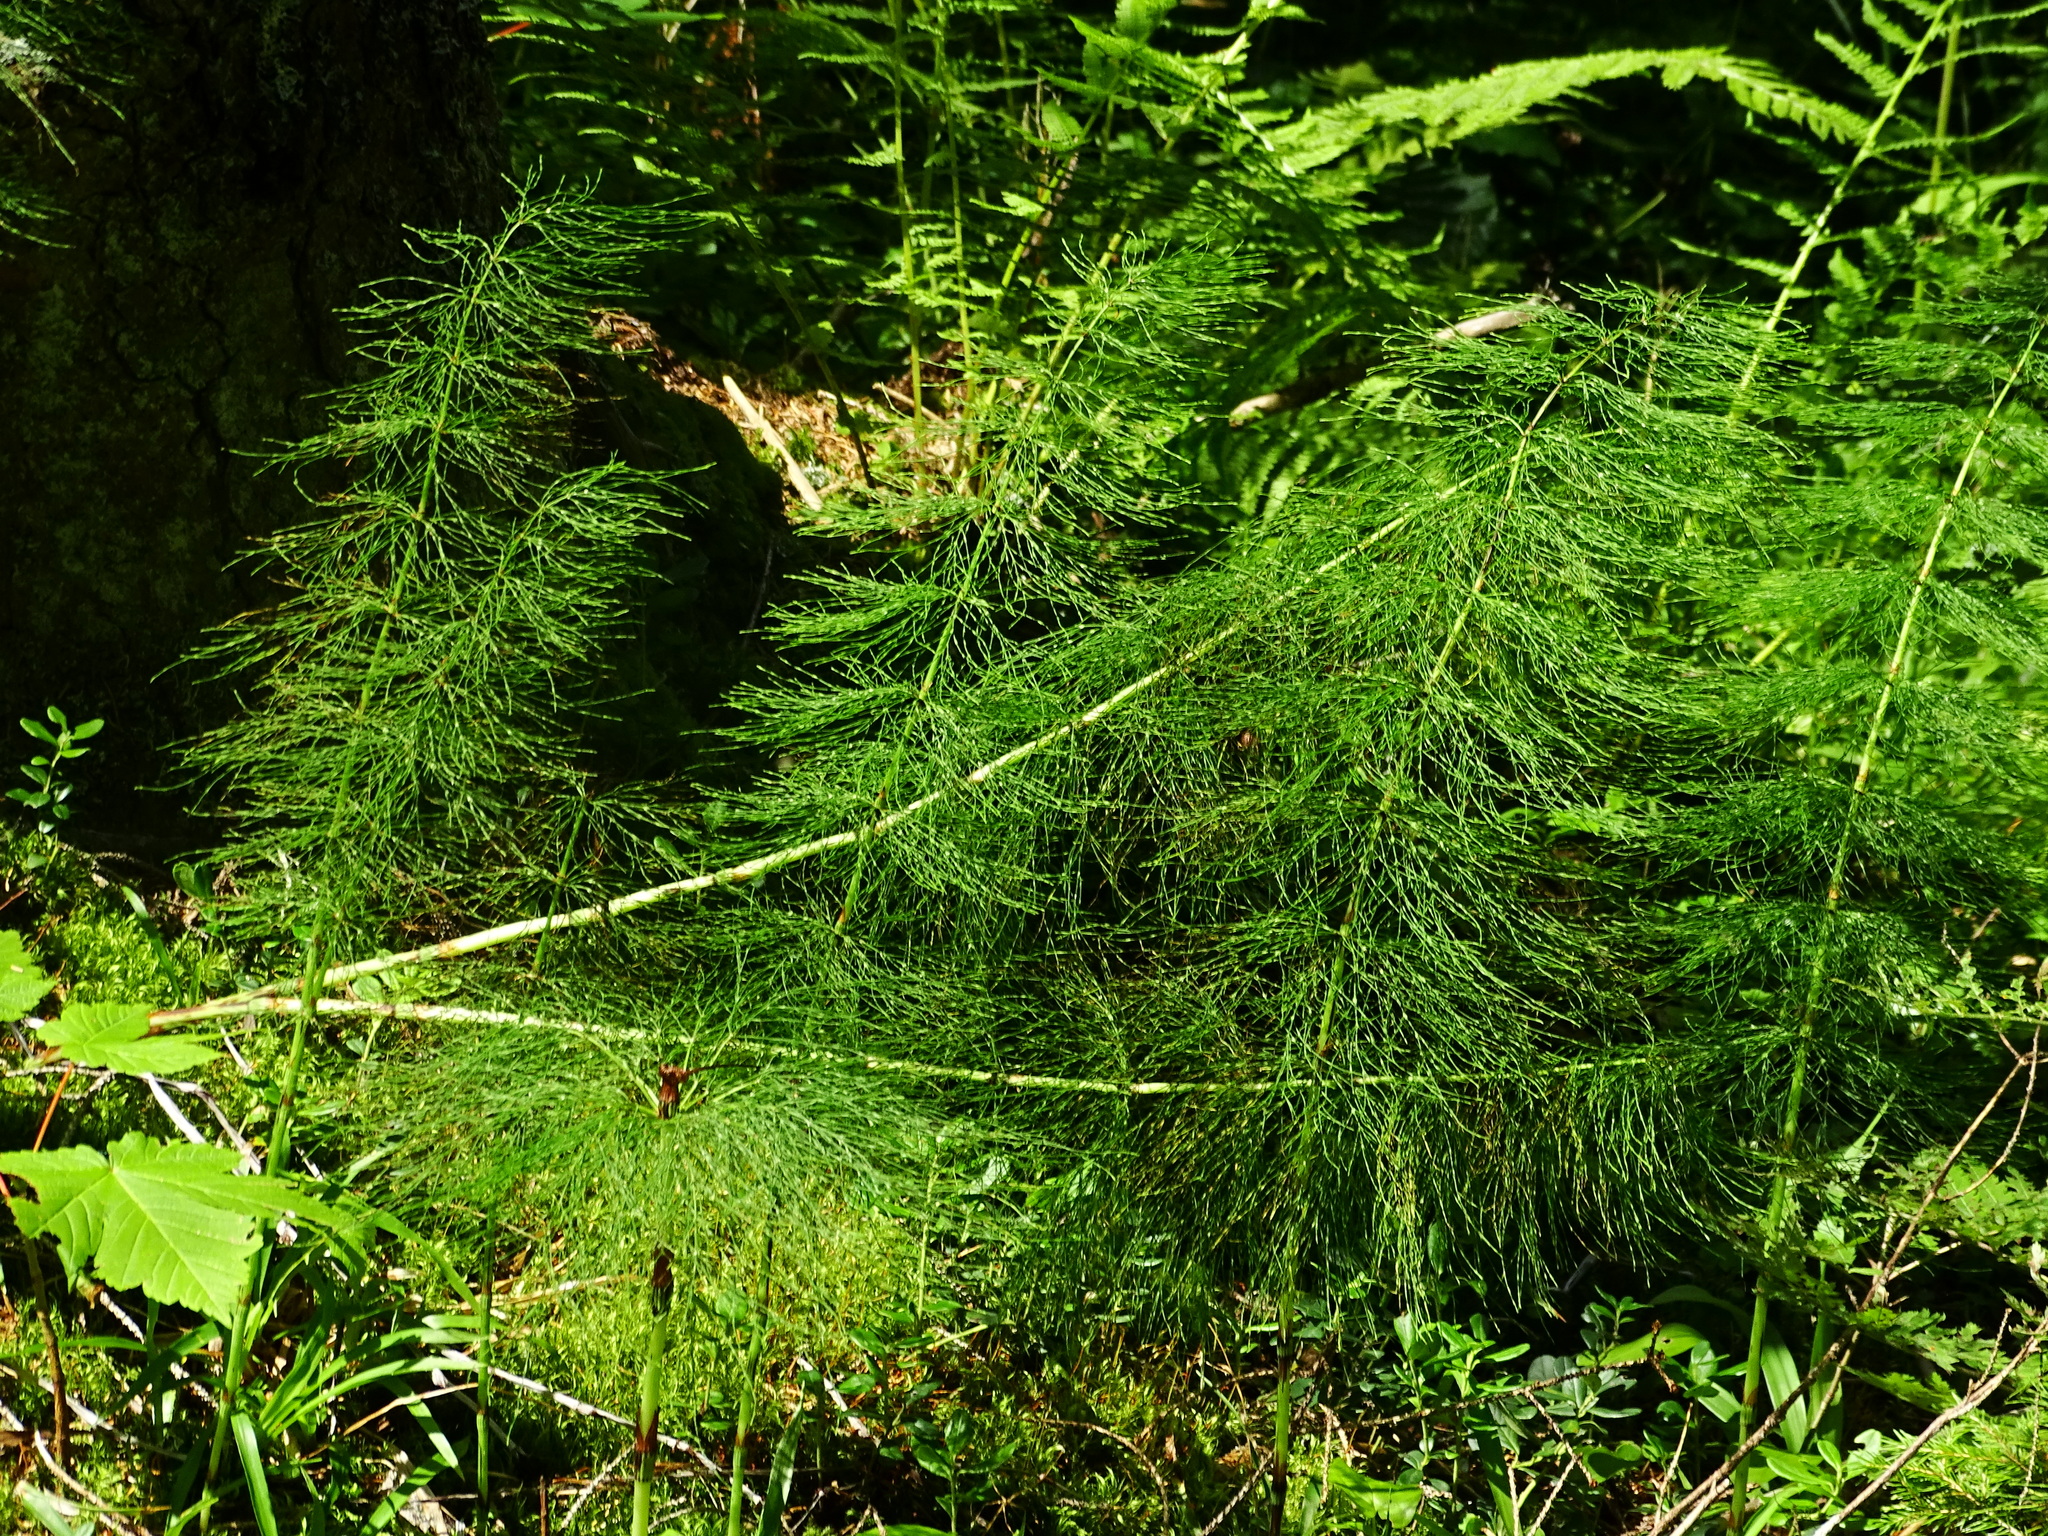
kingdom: Plantae
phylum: Tracheophyta
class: Polypodiopsida
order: Equisetales
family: Equisetaceae
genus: Equisetum
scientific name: Equisetum sylvaticum
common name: Wood horsetail
